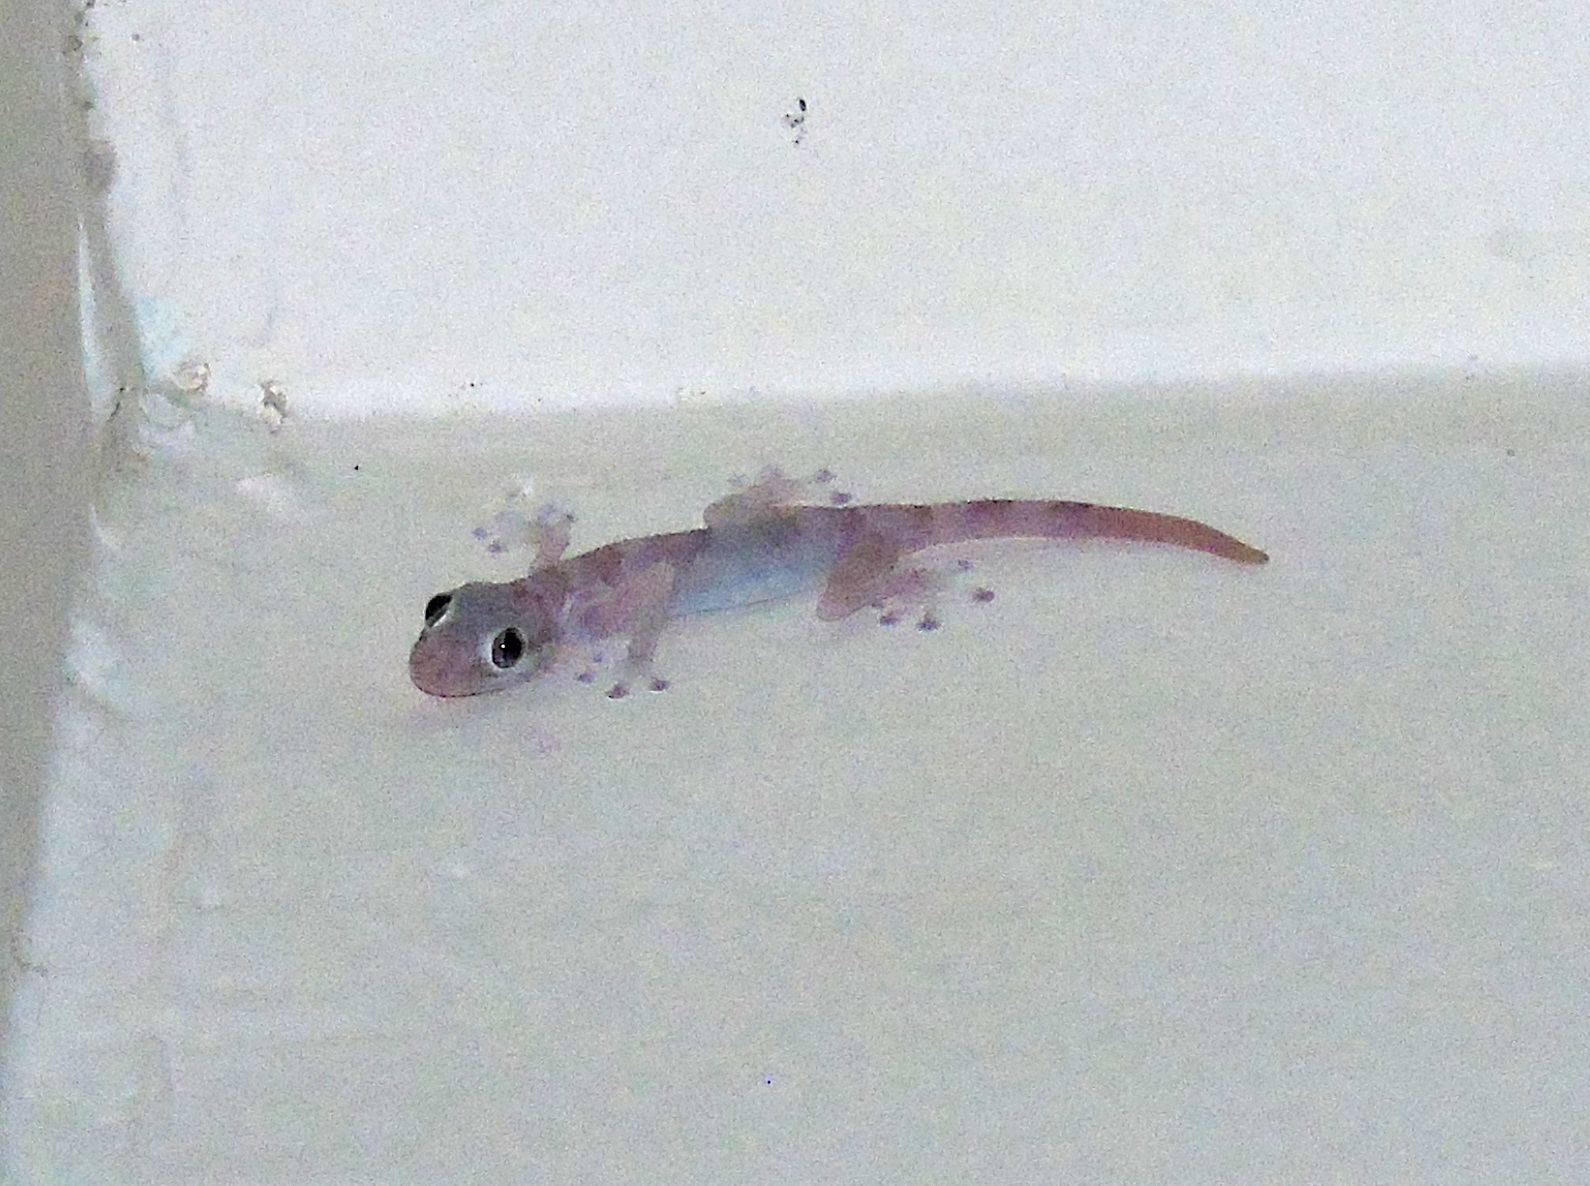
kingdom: Animalia
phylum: Chordata
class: Squamata
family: Phyllodactylidae
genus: Ptyodactylus
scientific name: Ptyodactylus hasselquistii
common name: Hasselquist’s fan-footed gecko
